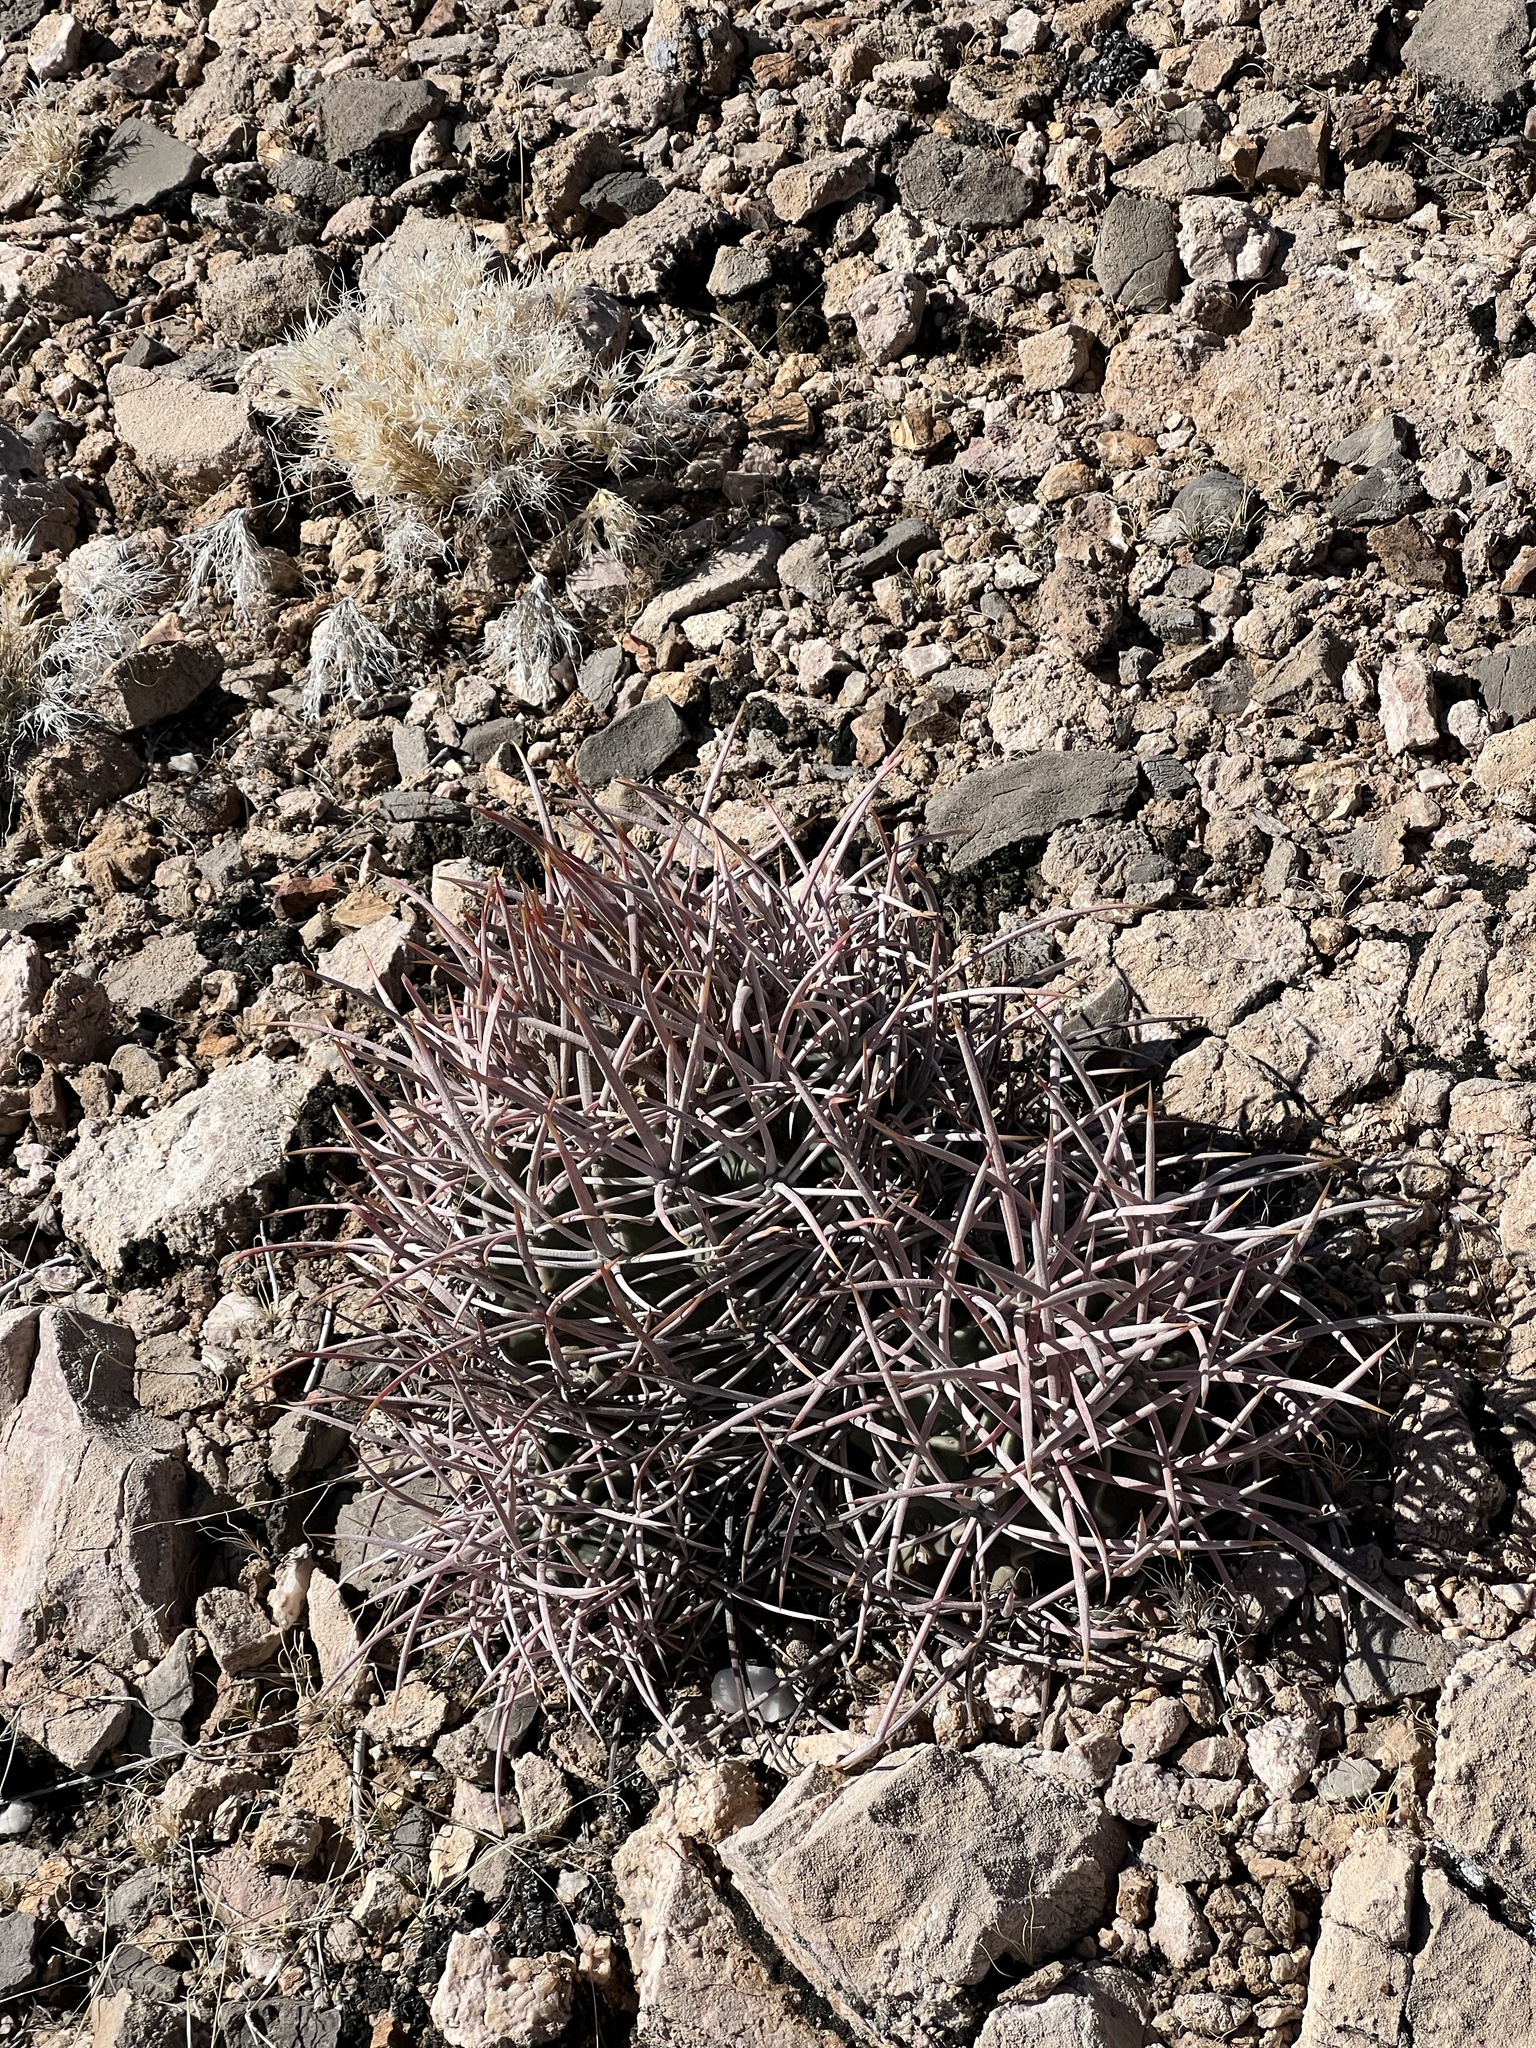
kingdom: Plantae
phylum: Tracheophyta
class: Magnoliopsida
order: Caryophyllales
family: Cactaceae
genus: Echinocactus
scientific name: Echinocactus polycephalus
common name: Cottontop cactus
